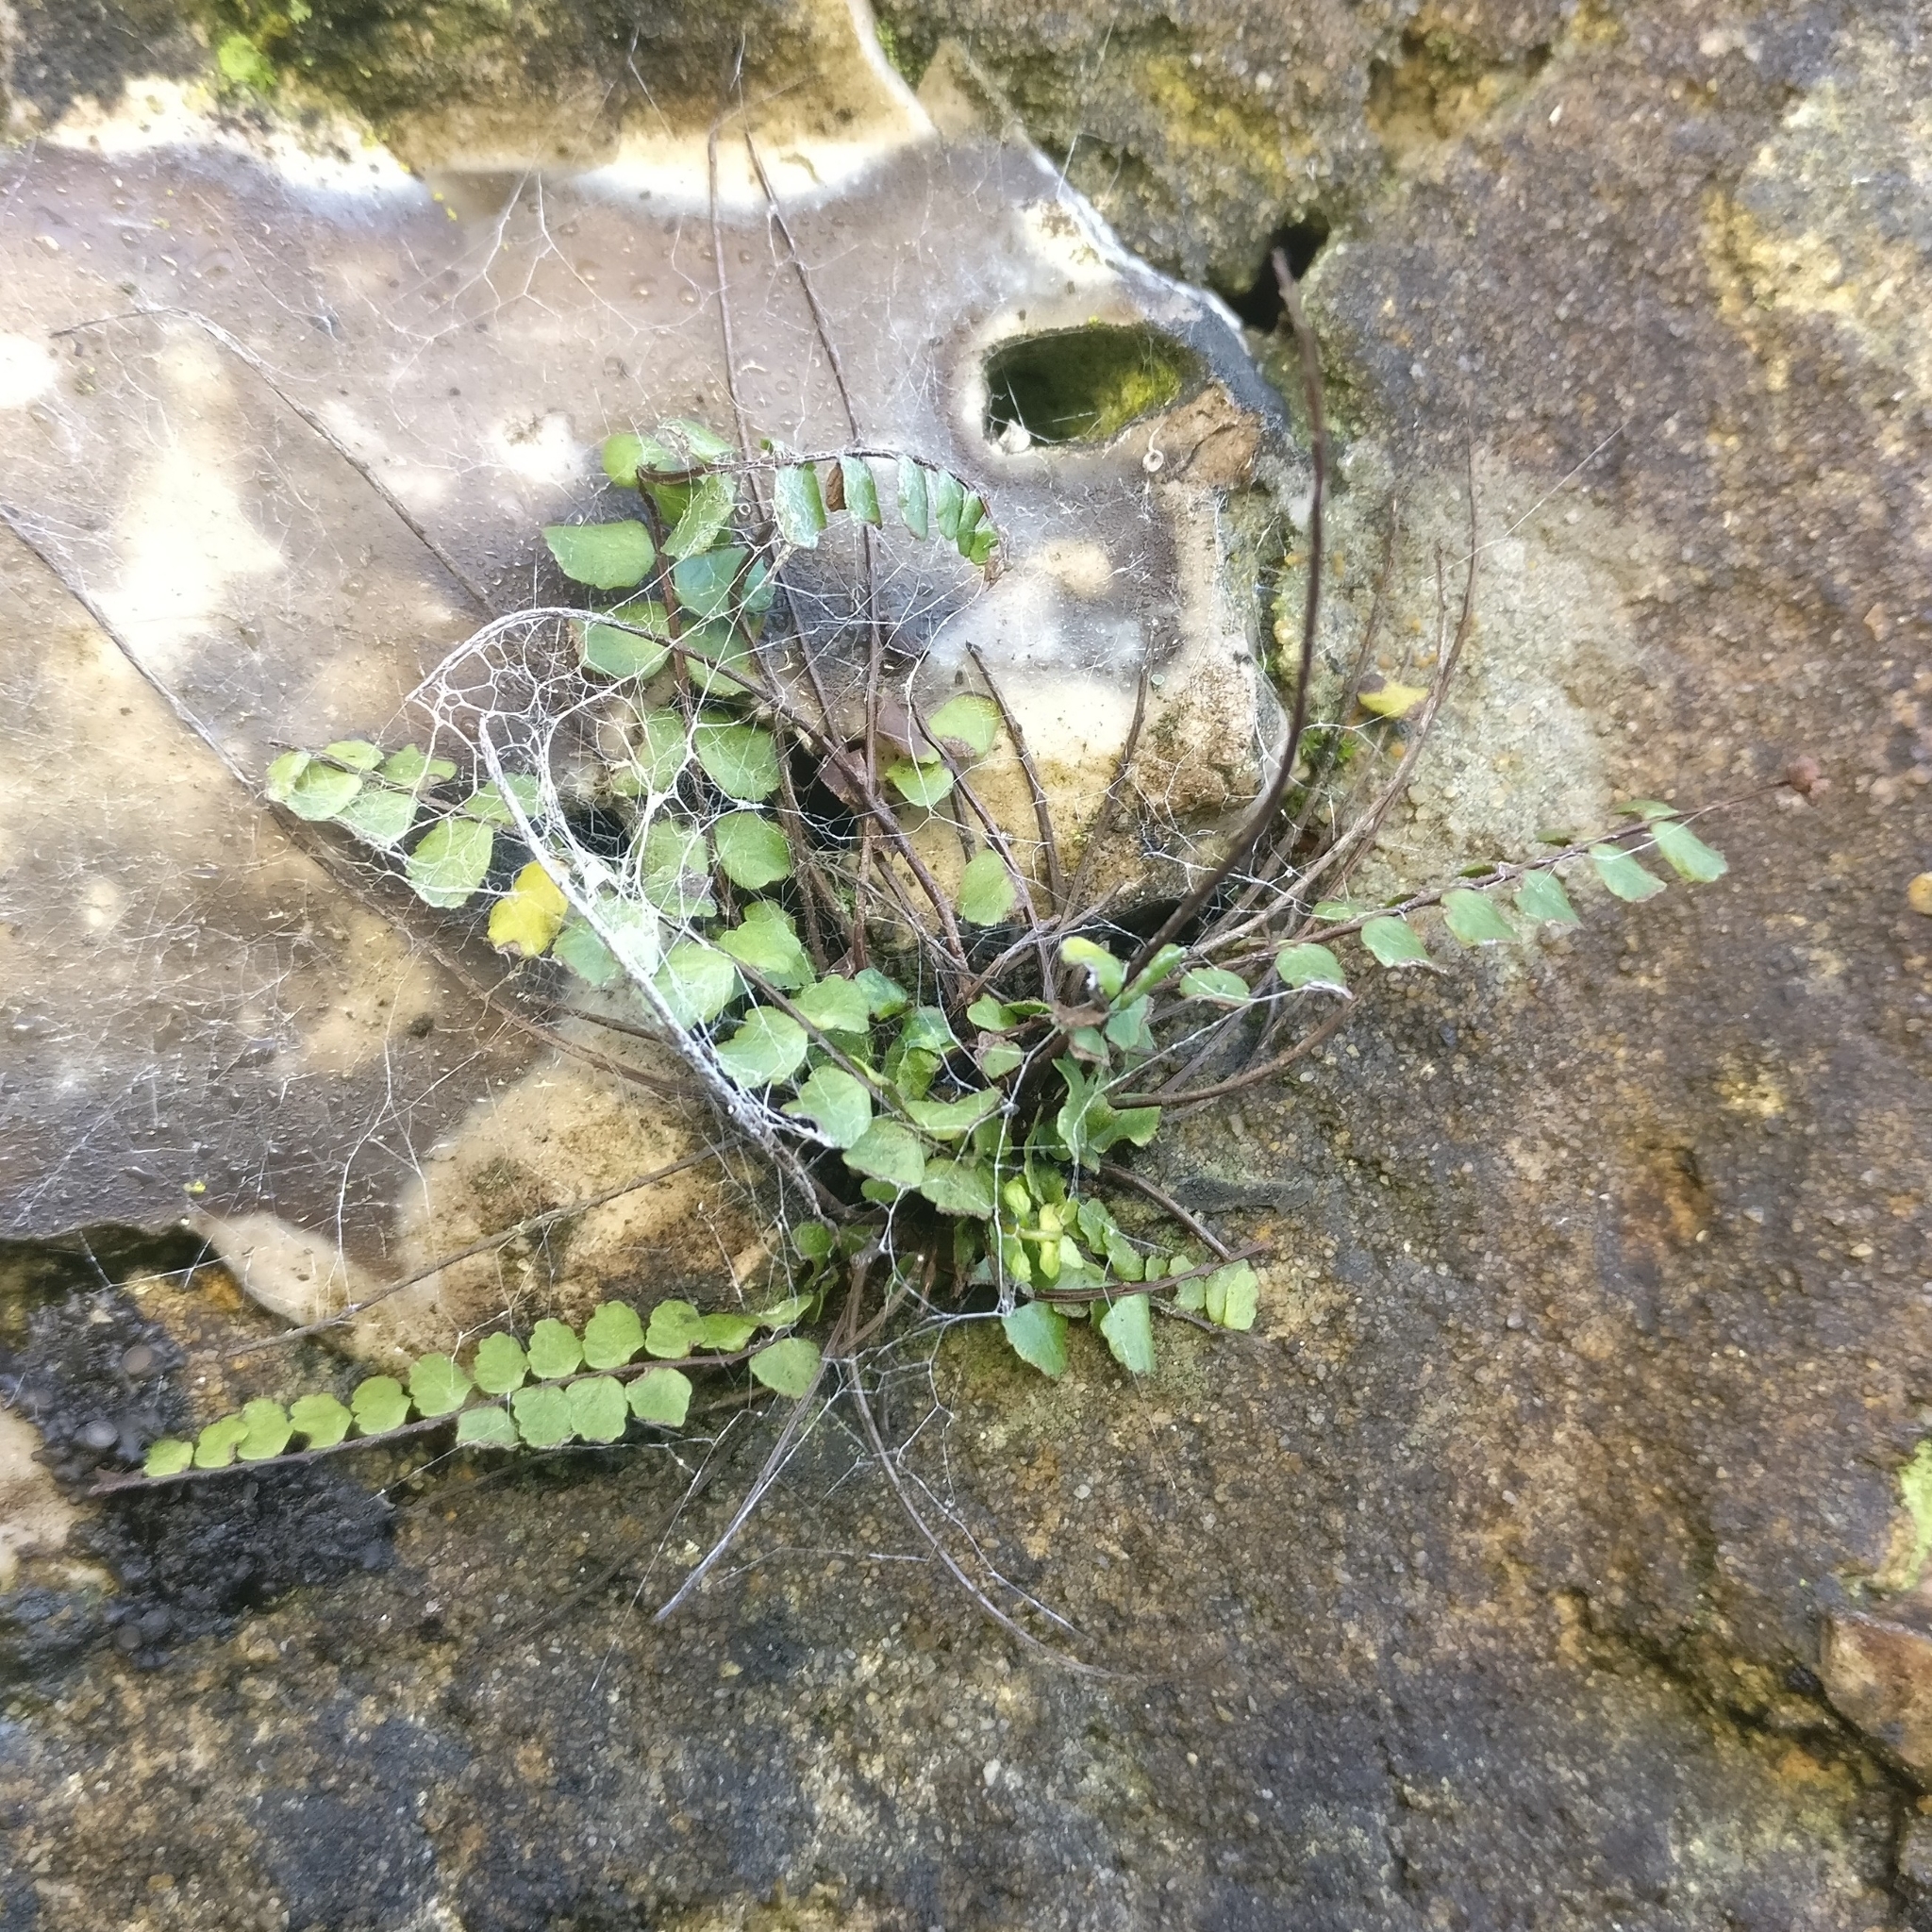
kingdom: Plantae
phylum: Tracheophyta
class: Polypodiopsida
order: Polypodiales
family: Aspleniaceae
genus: Asplenium
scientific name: Asplenium trichomanes
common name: Maidenhair spleenwort
